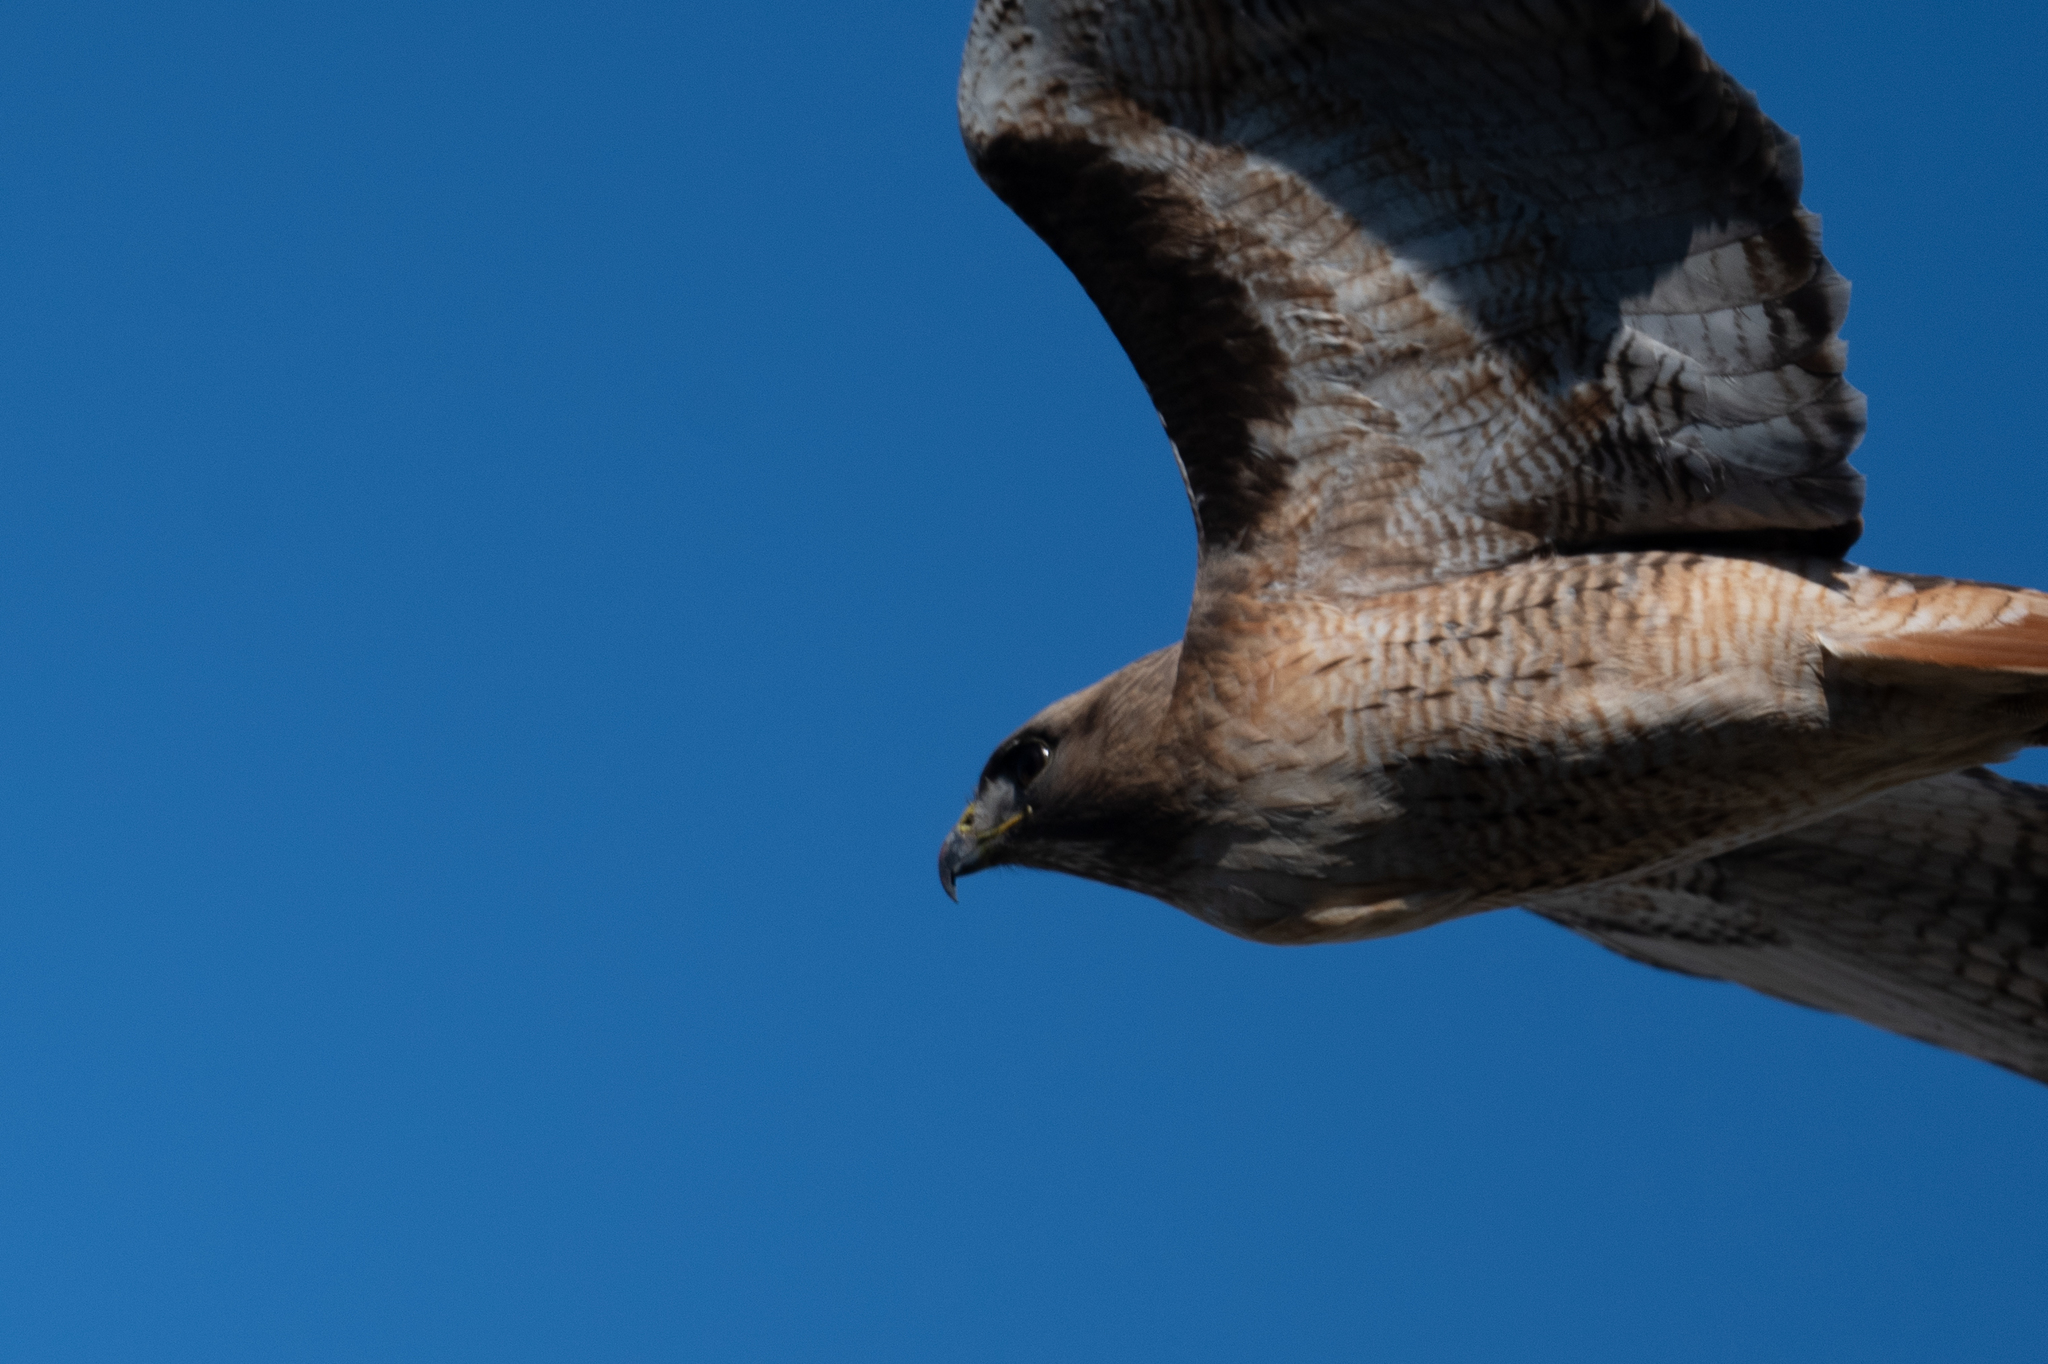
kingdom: Animalia
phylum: Chordata
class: Aves
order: Accipitriformes
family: Accipitridae
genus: Buteo
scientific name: Buteo jamaicensis
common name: Red-tailed hawk
